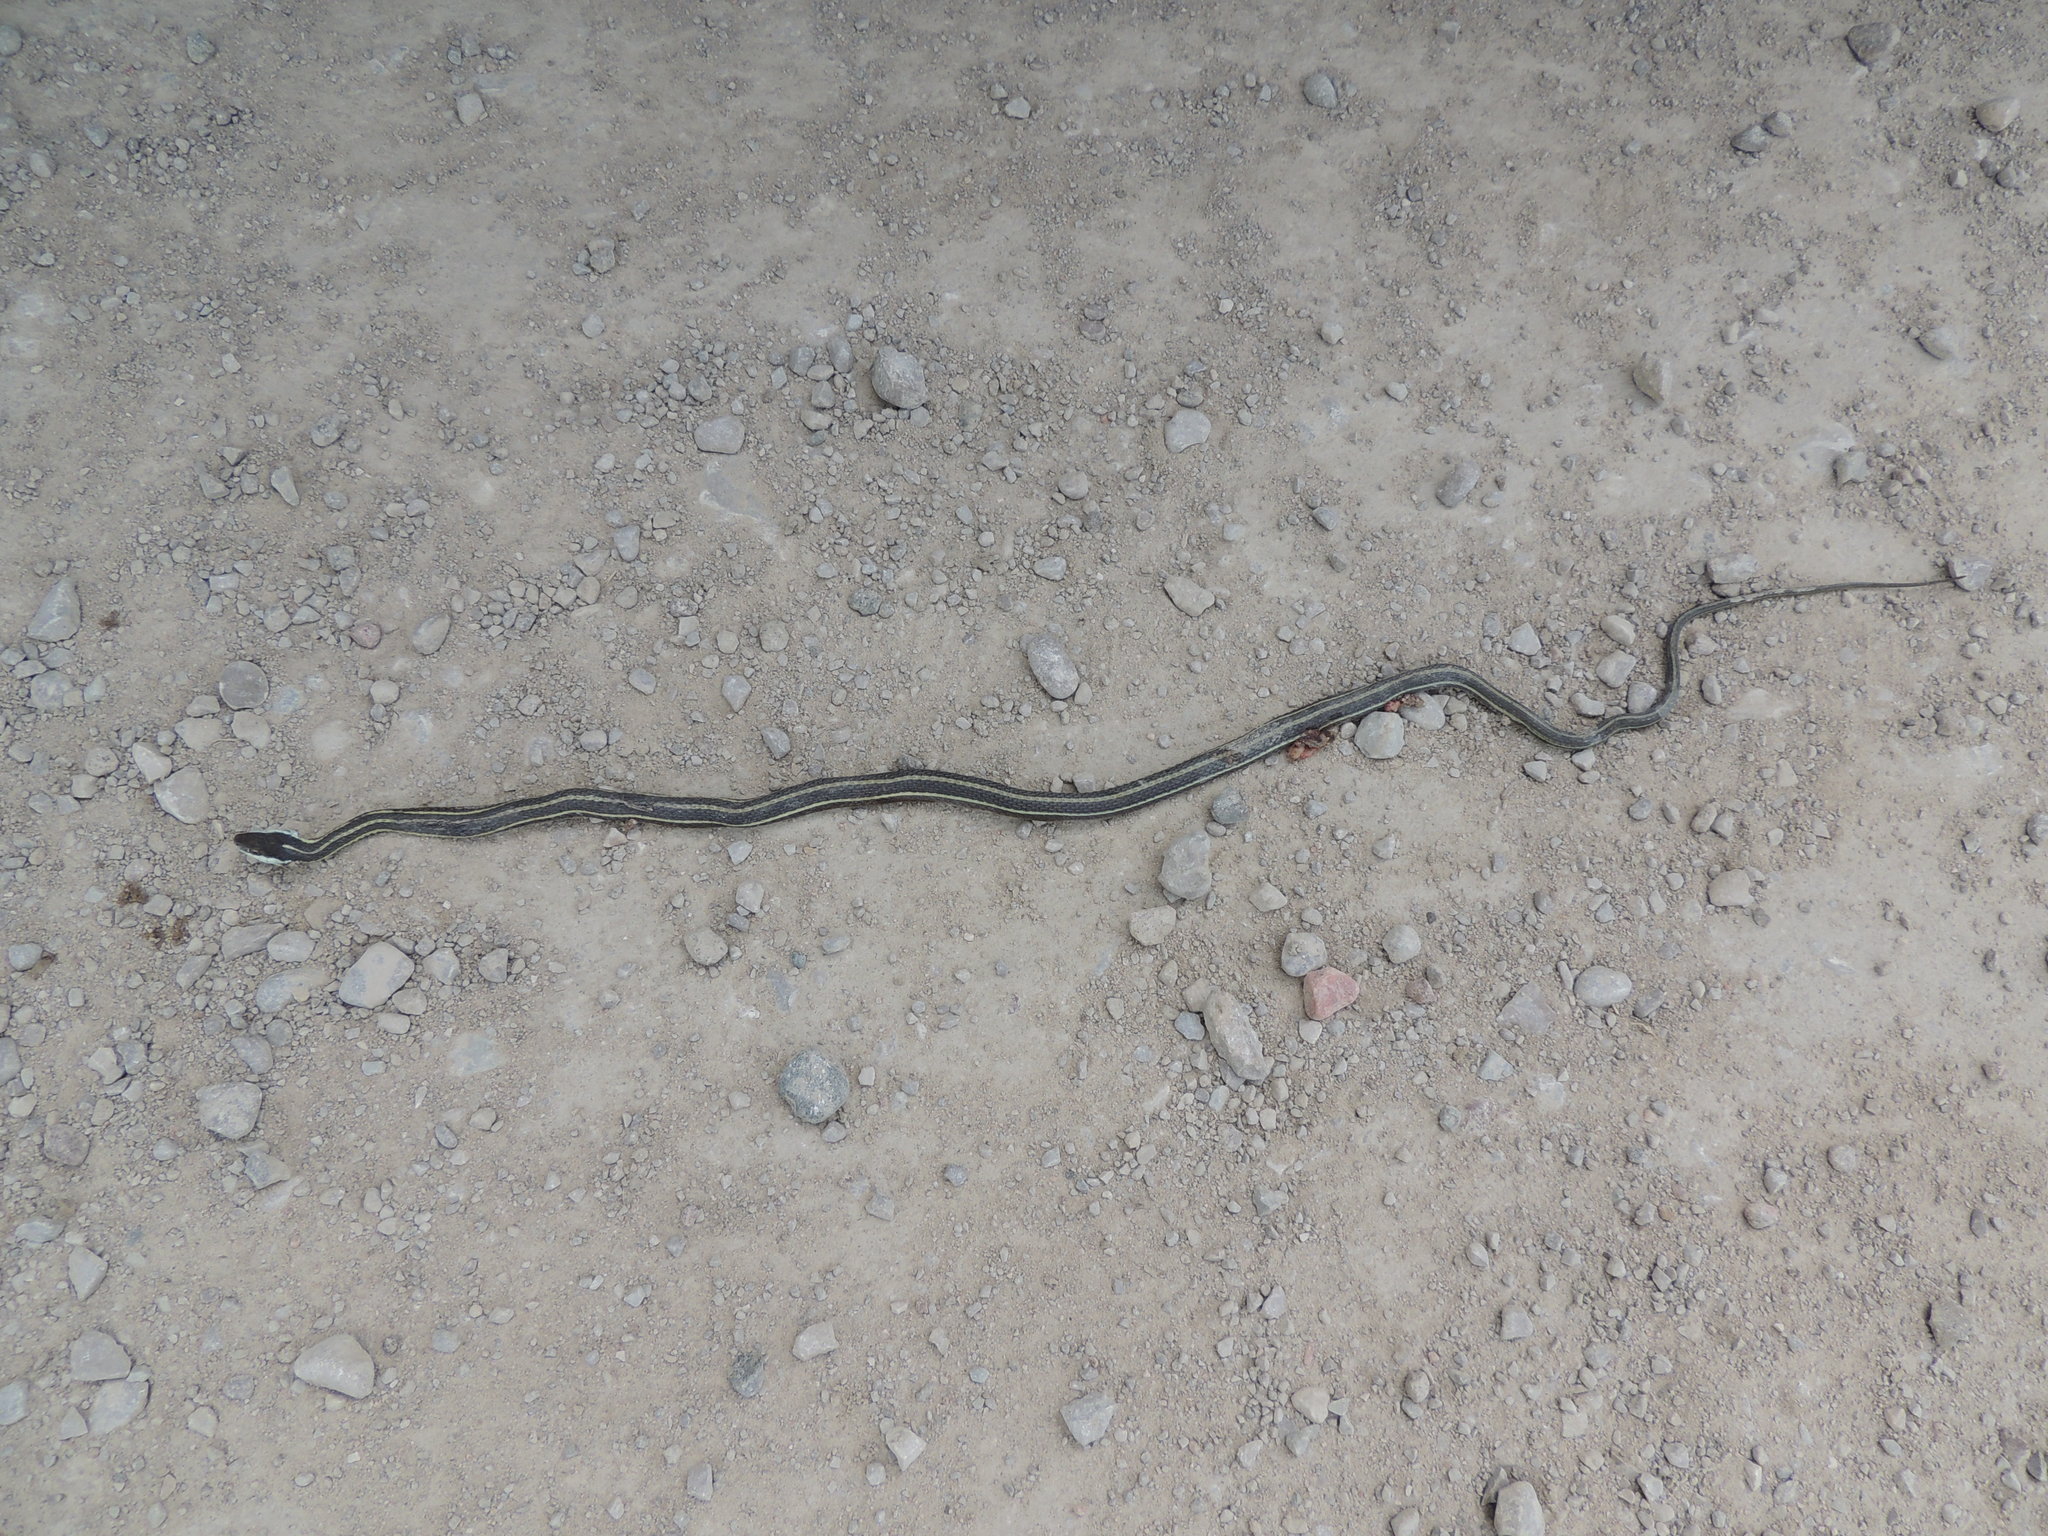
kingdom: Animalia
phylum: Chordata
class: Squamata
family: Colubridae
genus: Thamnophis
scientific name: Thamnophis saurita
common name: Eastern ribbonsnake
